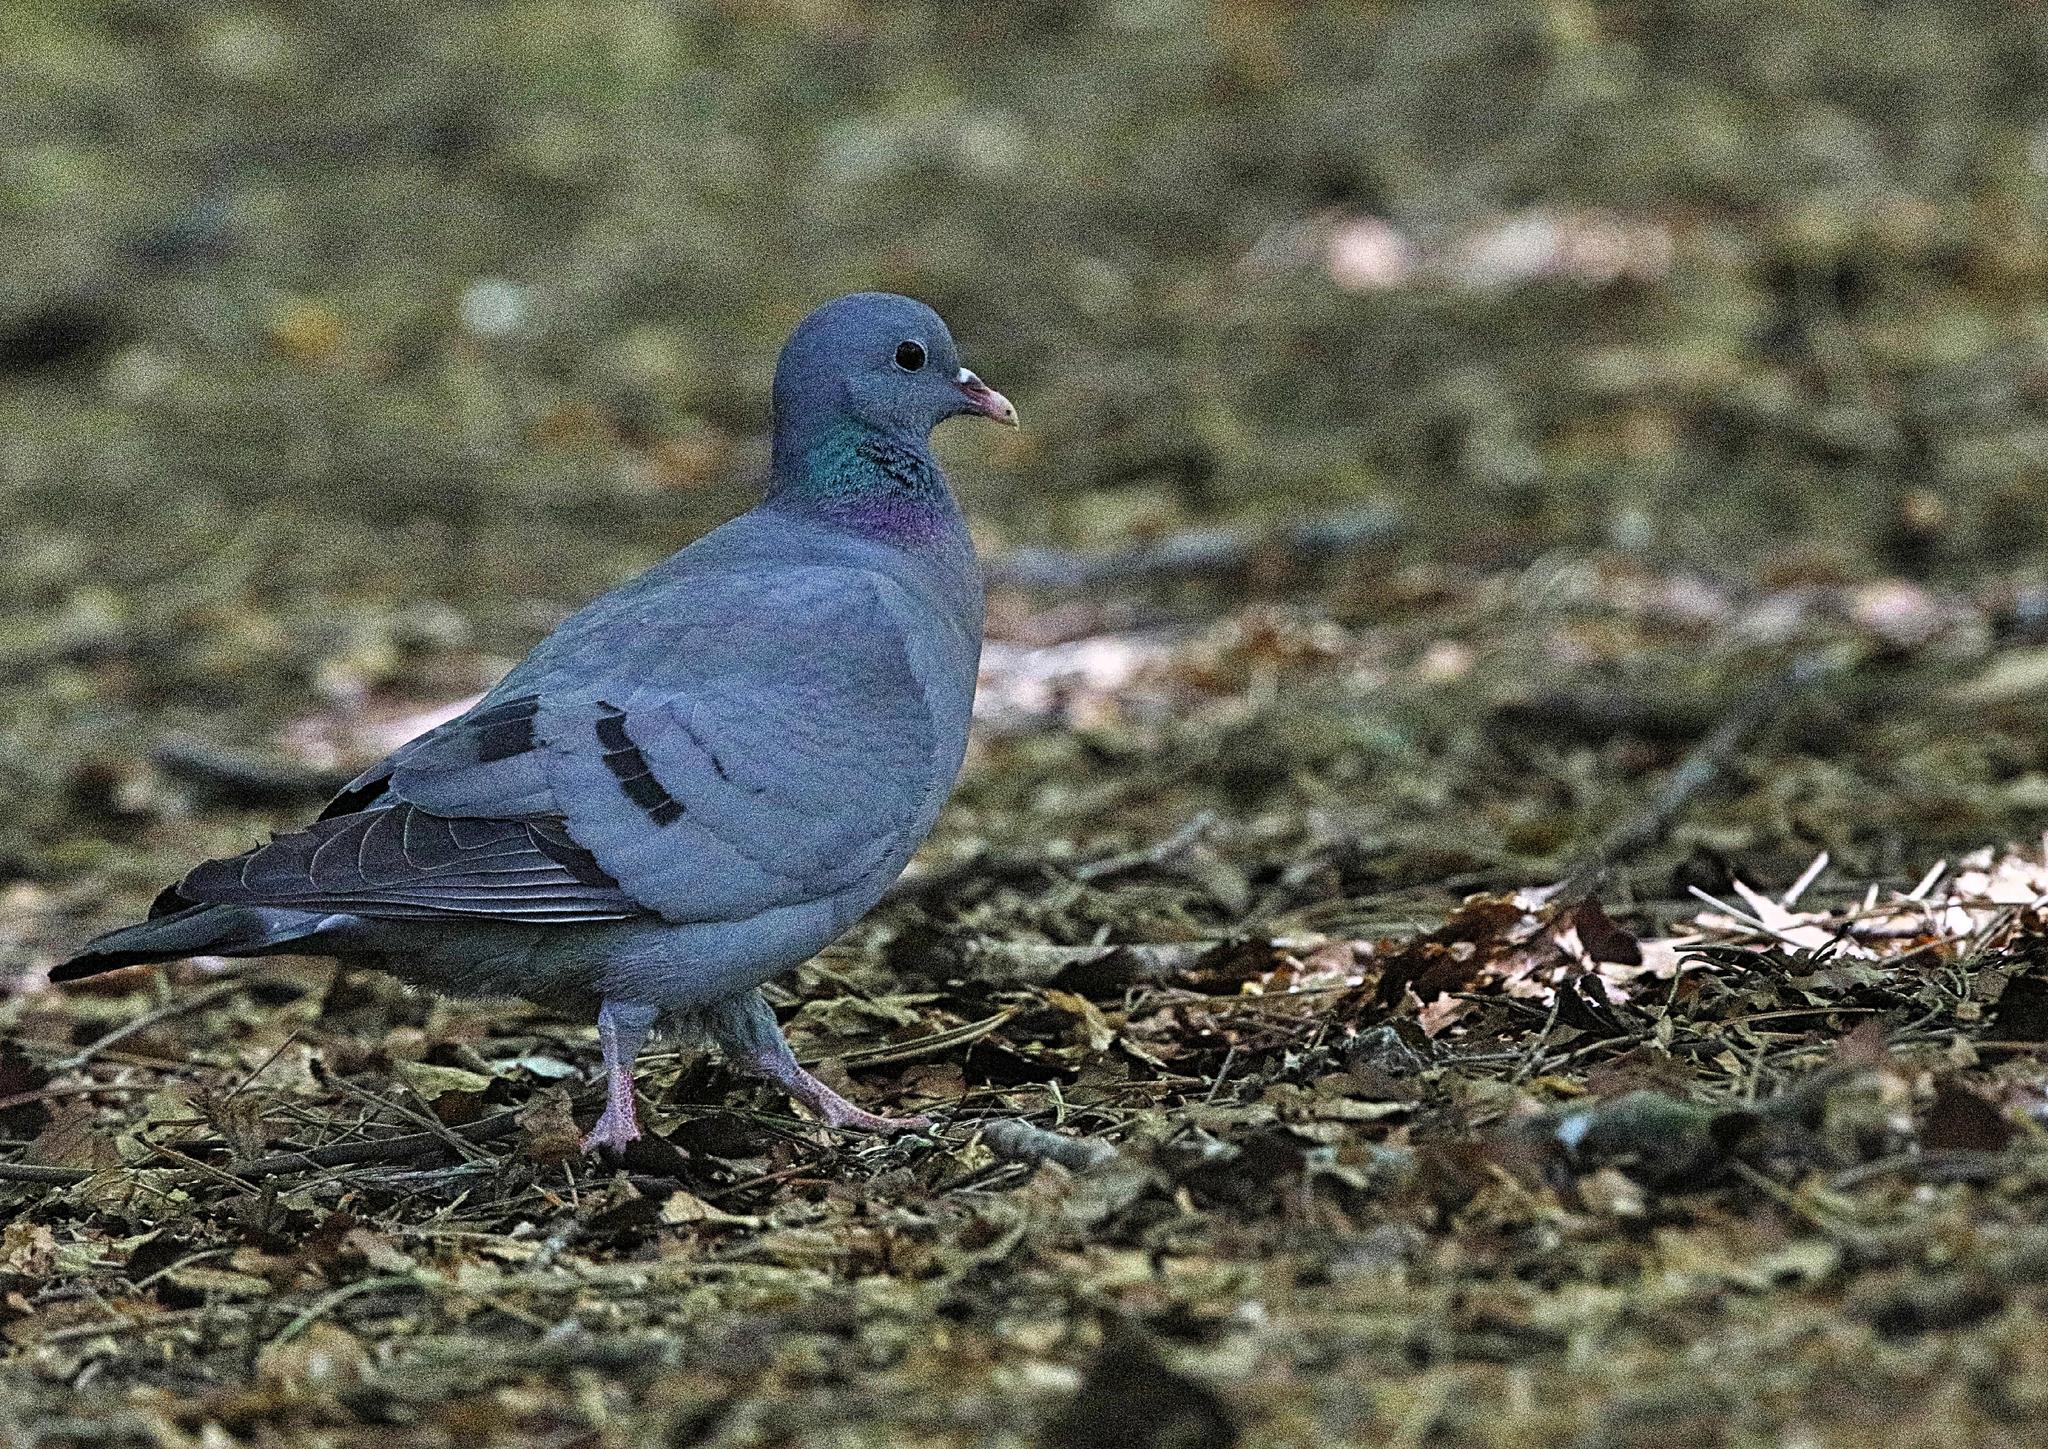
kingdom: Animalia
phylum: Chordata
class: Aves
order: Columbiformes
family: Columbidae
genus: Columba
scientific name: Columba oenas
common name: Stock dove
